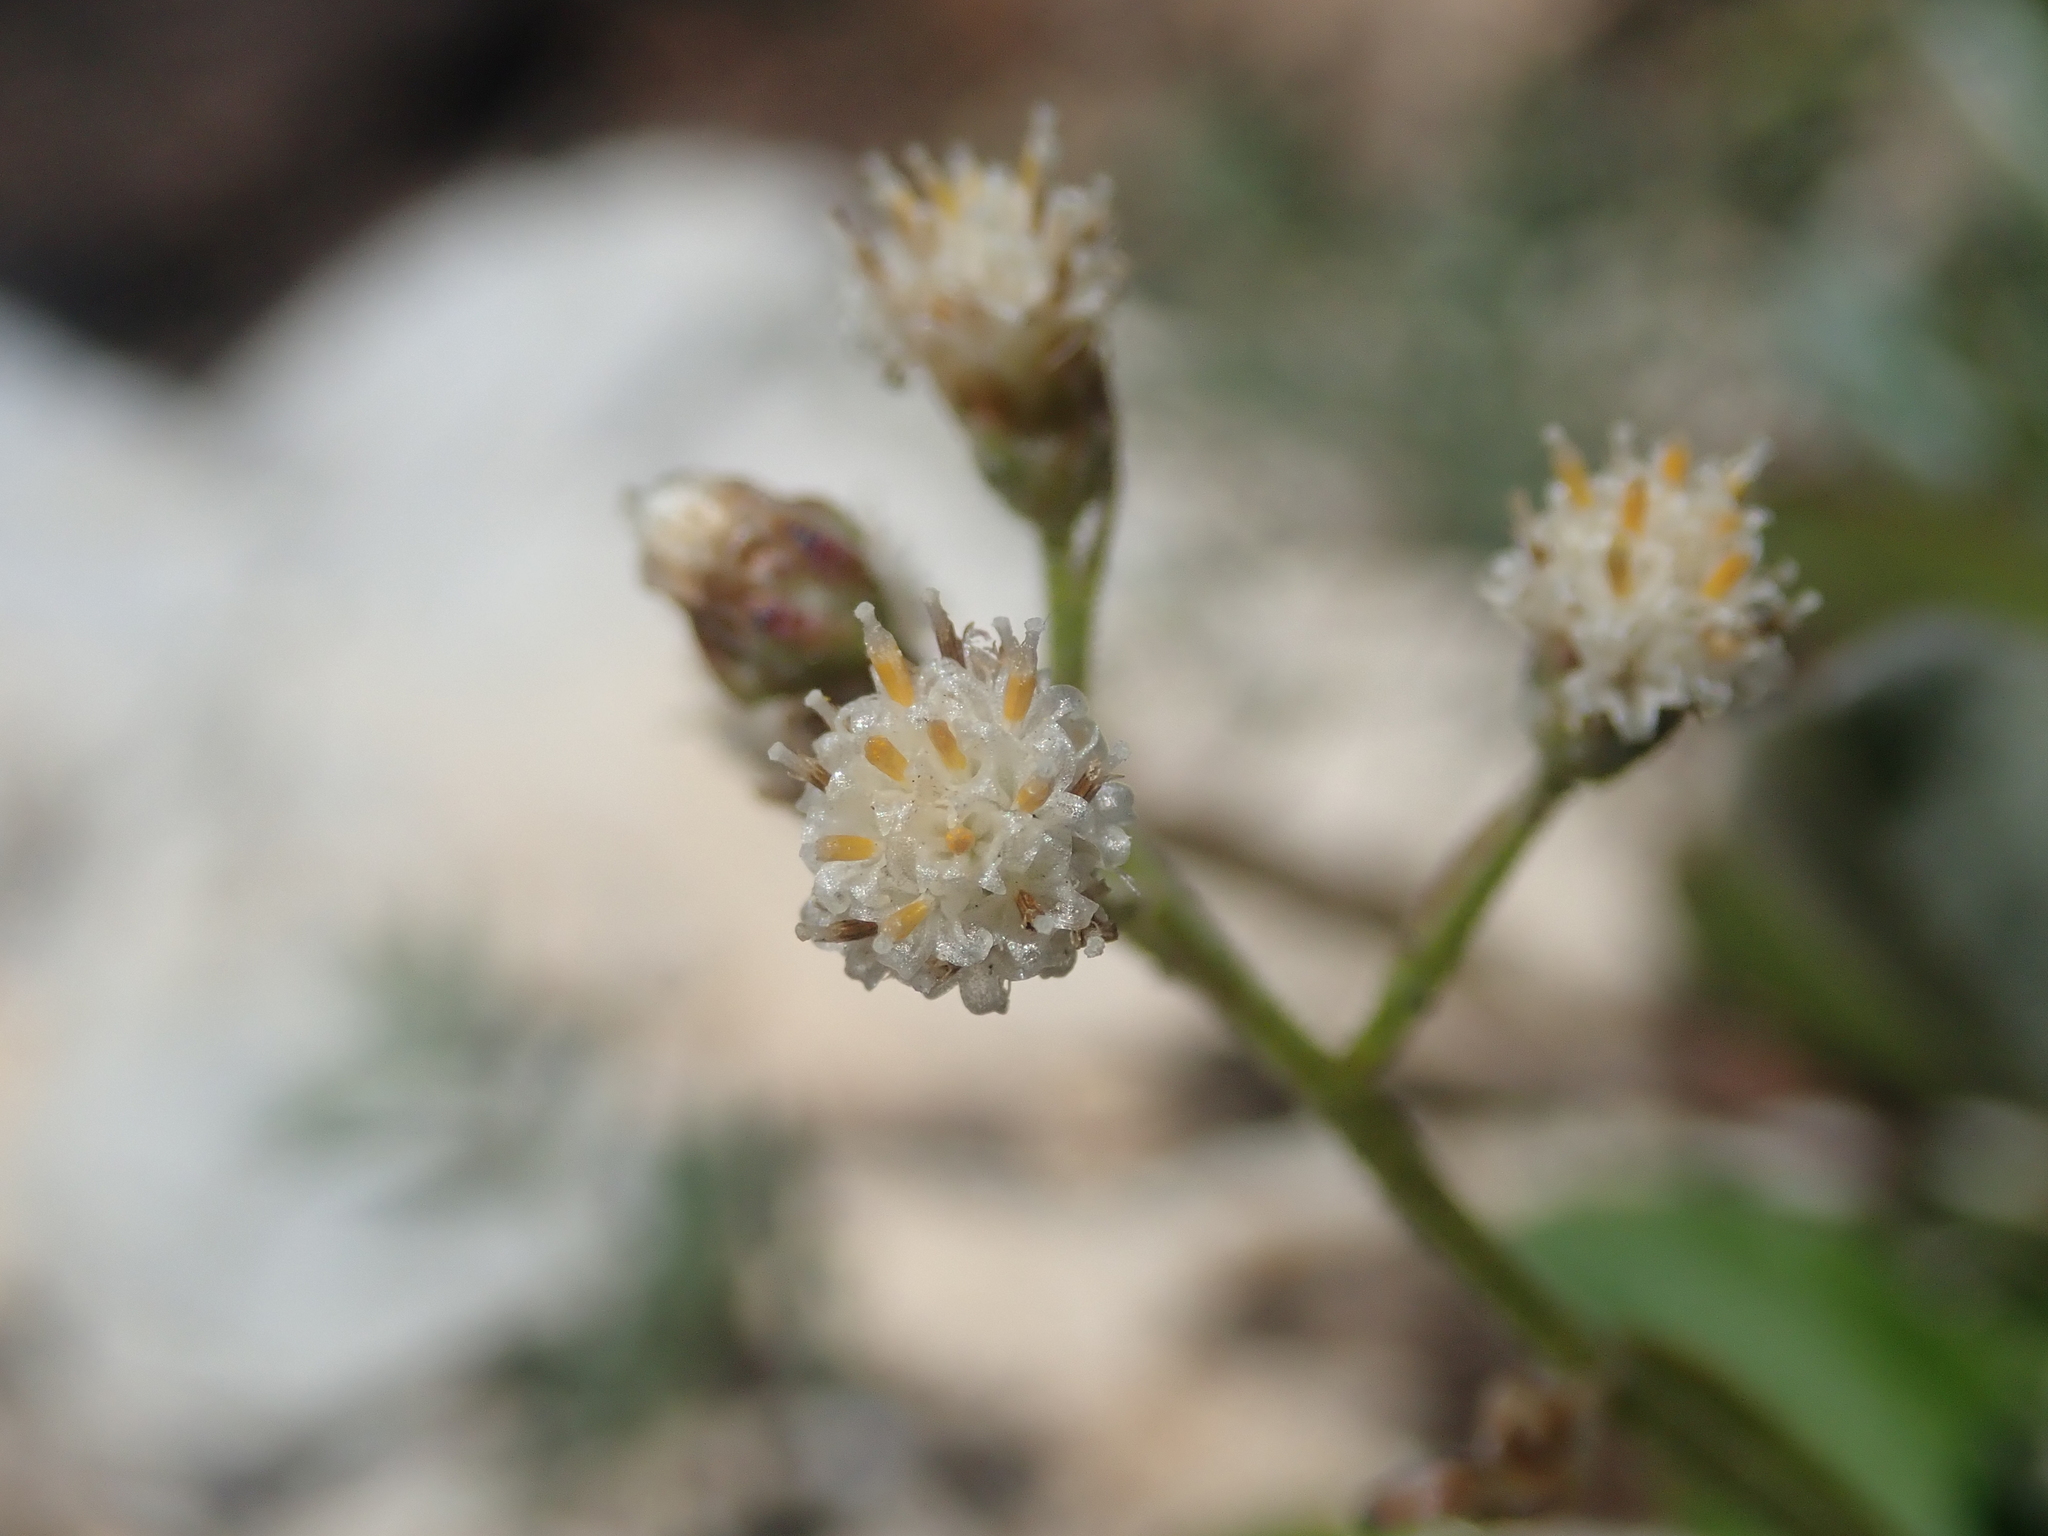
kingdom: Plantae
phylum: Tracheophyta
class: Magnoliopsida
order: Asterales
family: Asteraceae
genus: Antennaria
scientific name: Antennaria racemosa
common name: Racemose pussytoes
